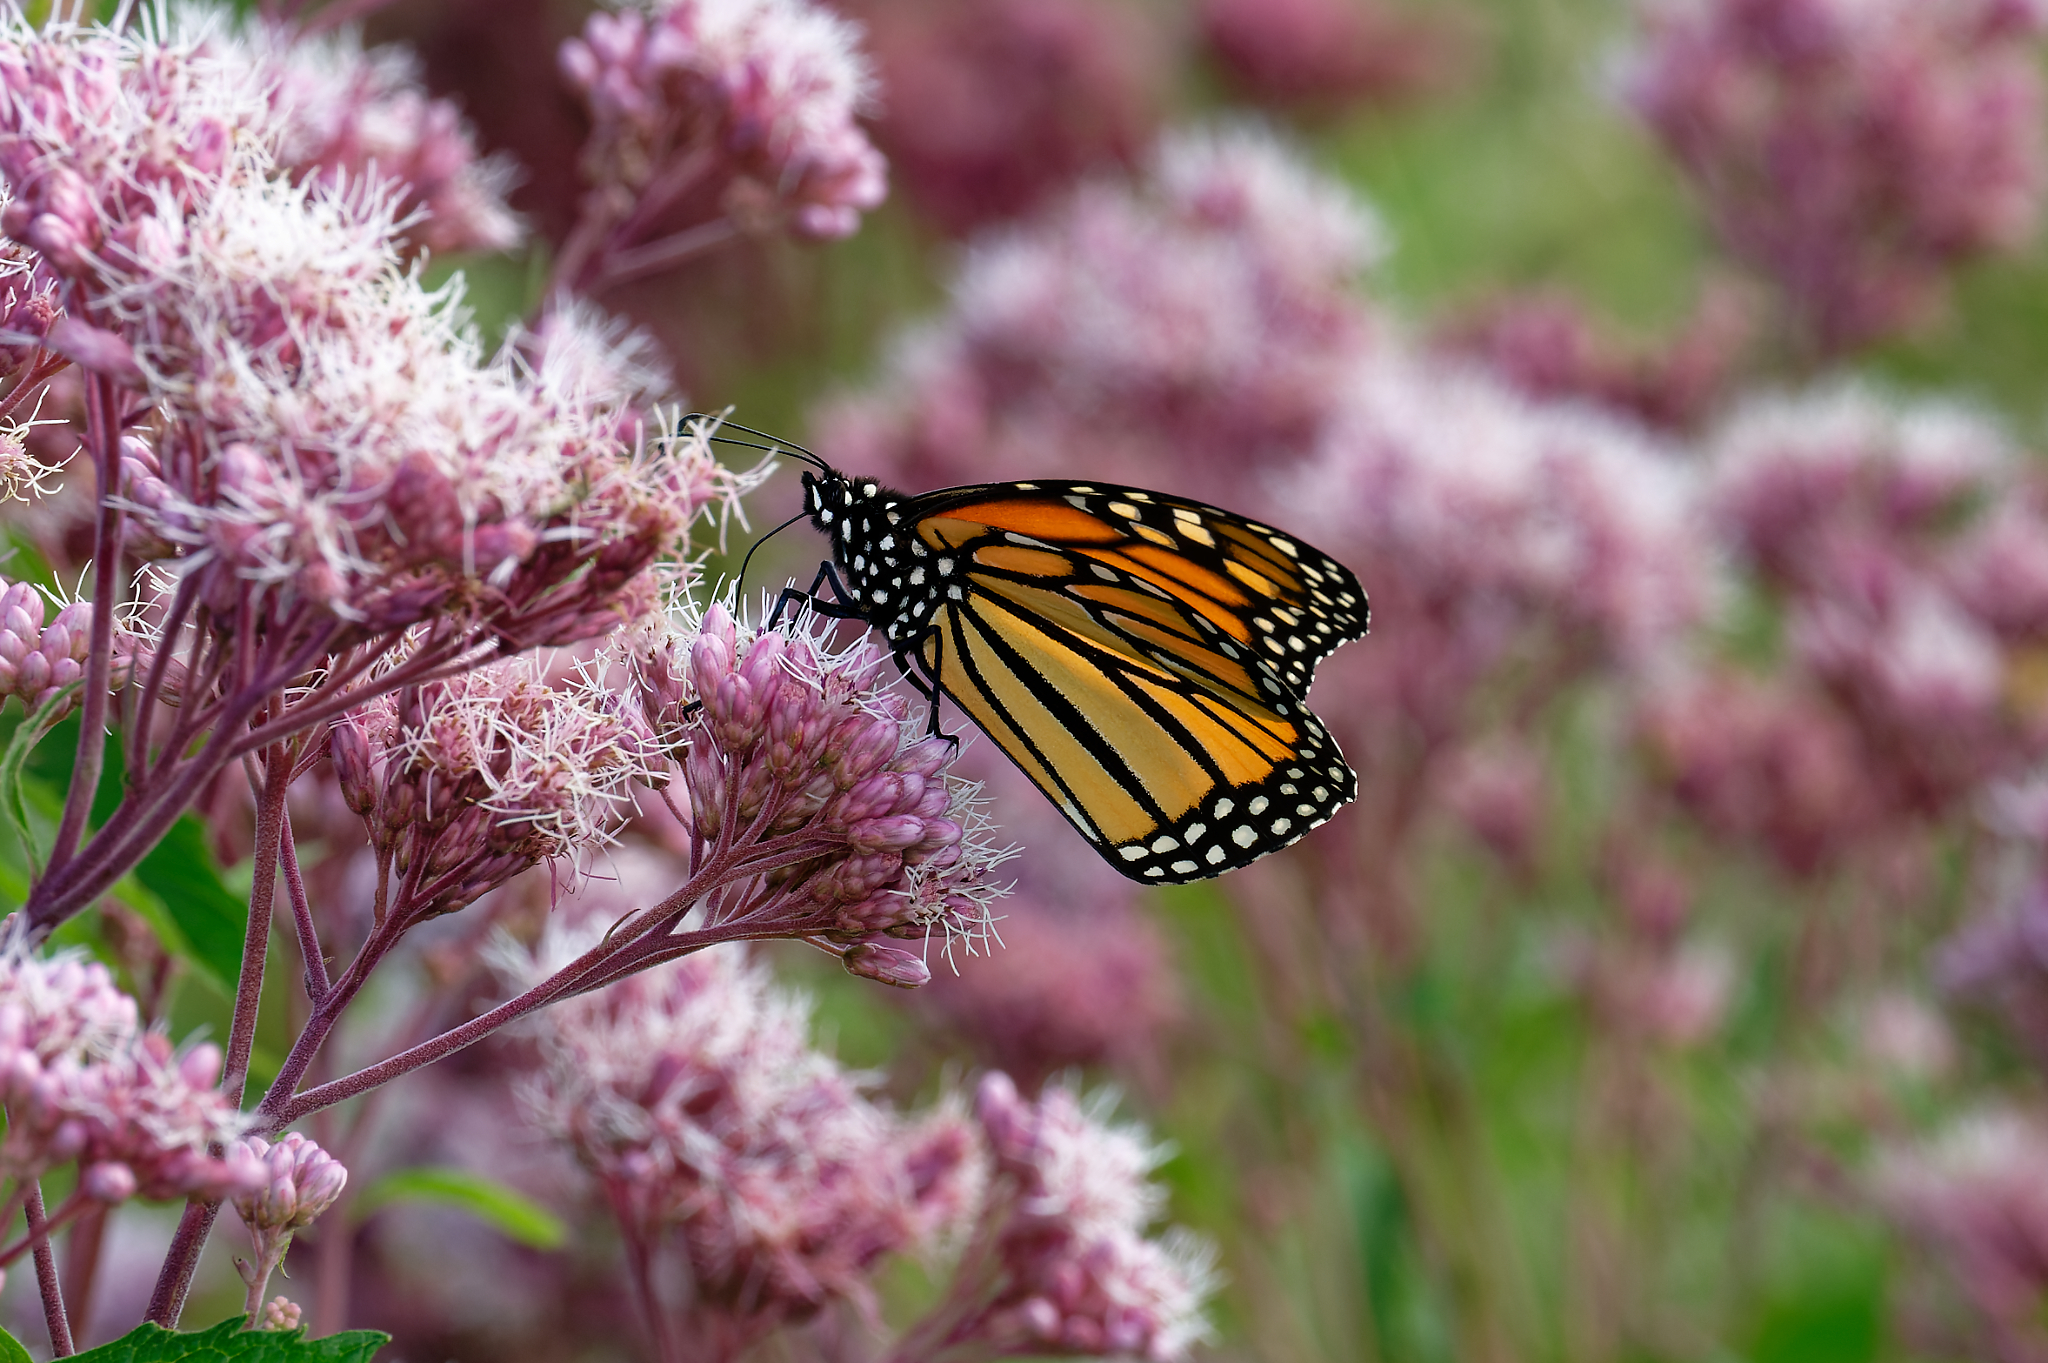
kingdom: Animalia
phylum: Arthropoda
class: Insecta
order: Lepidoptera
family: Nymphalidae
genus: Danaus
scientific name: Danaus plexippus
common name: Monarch
